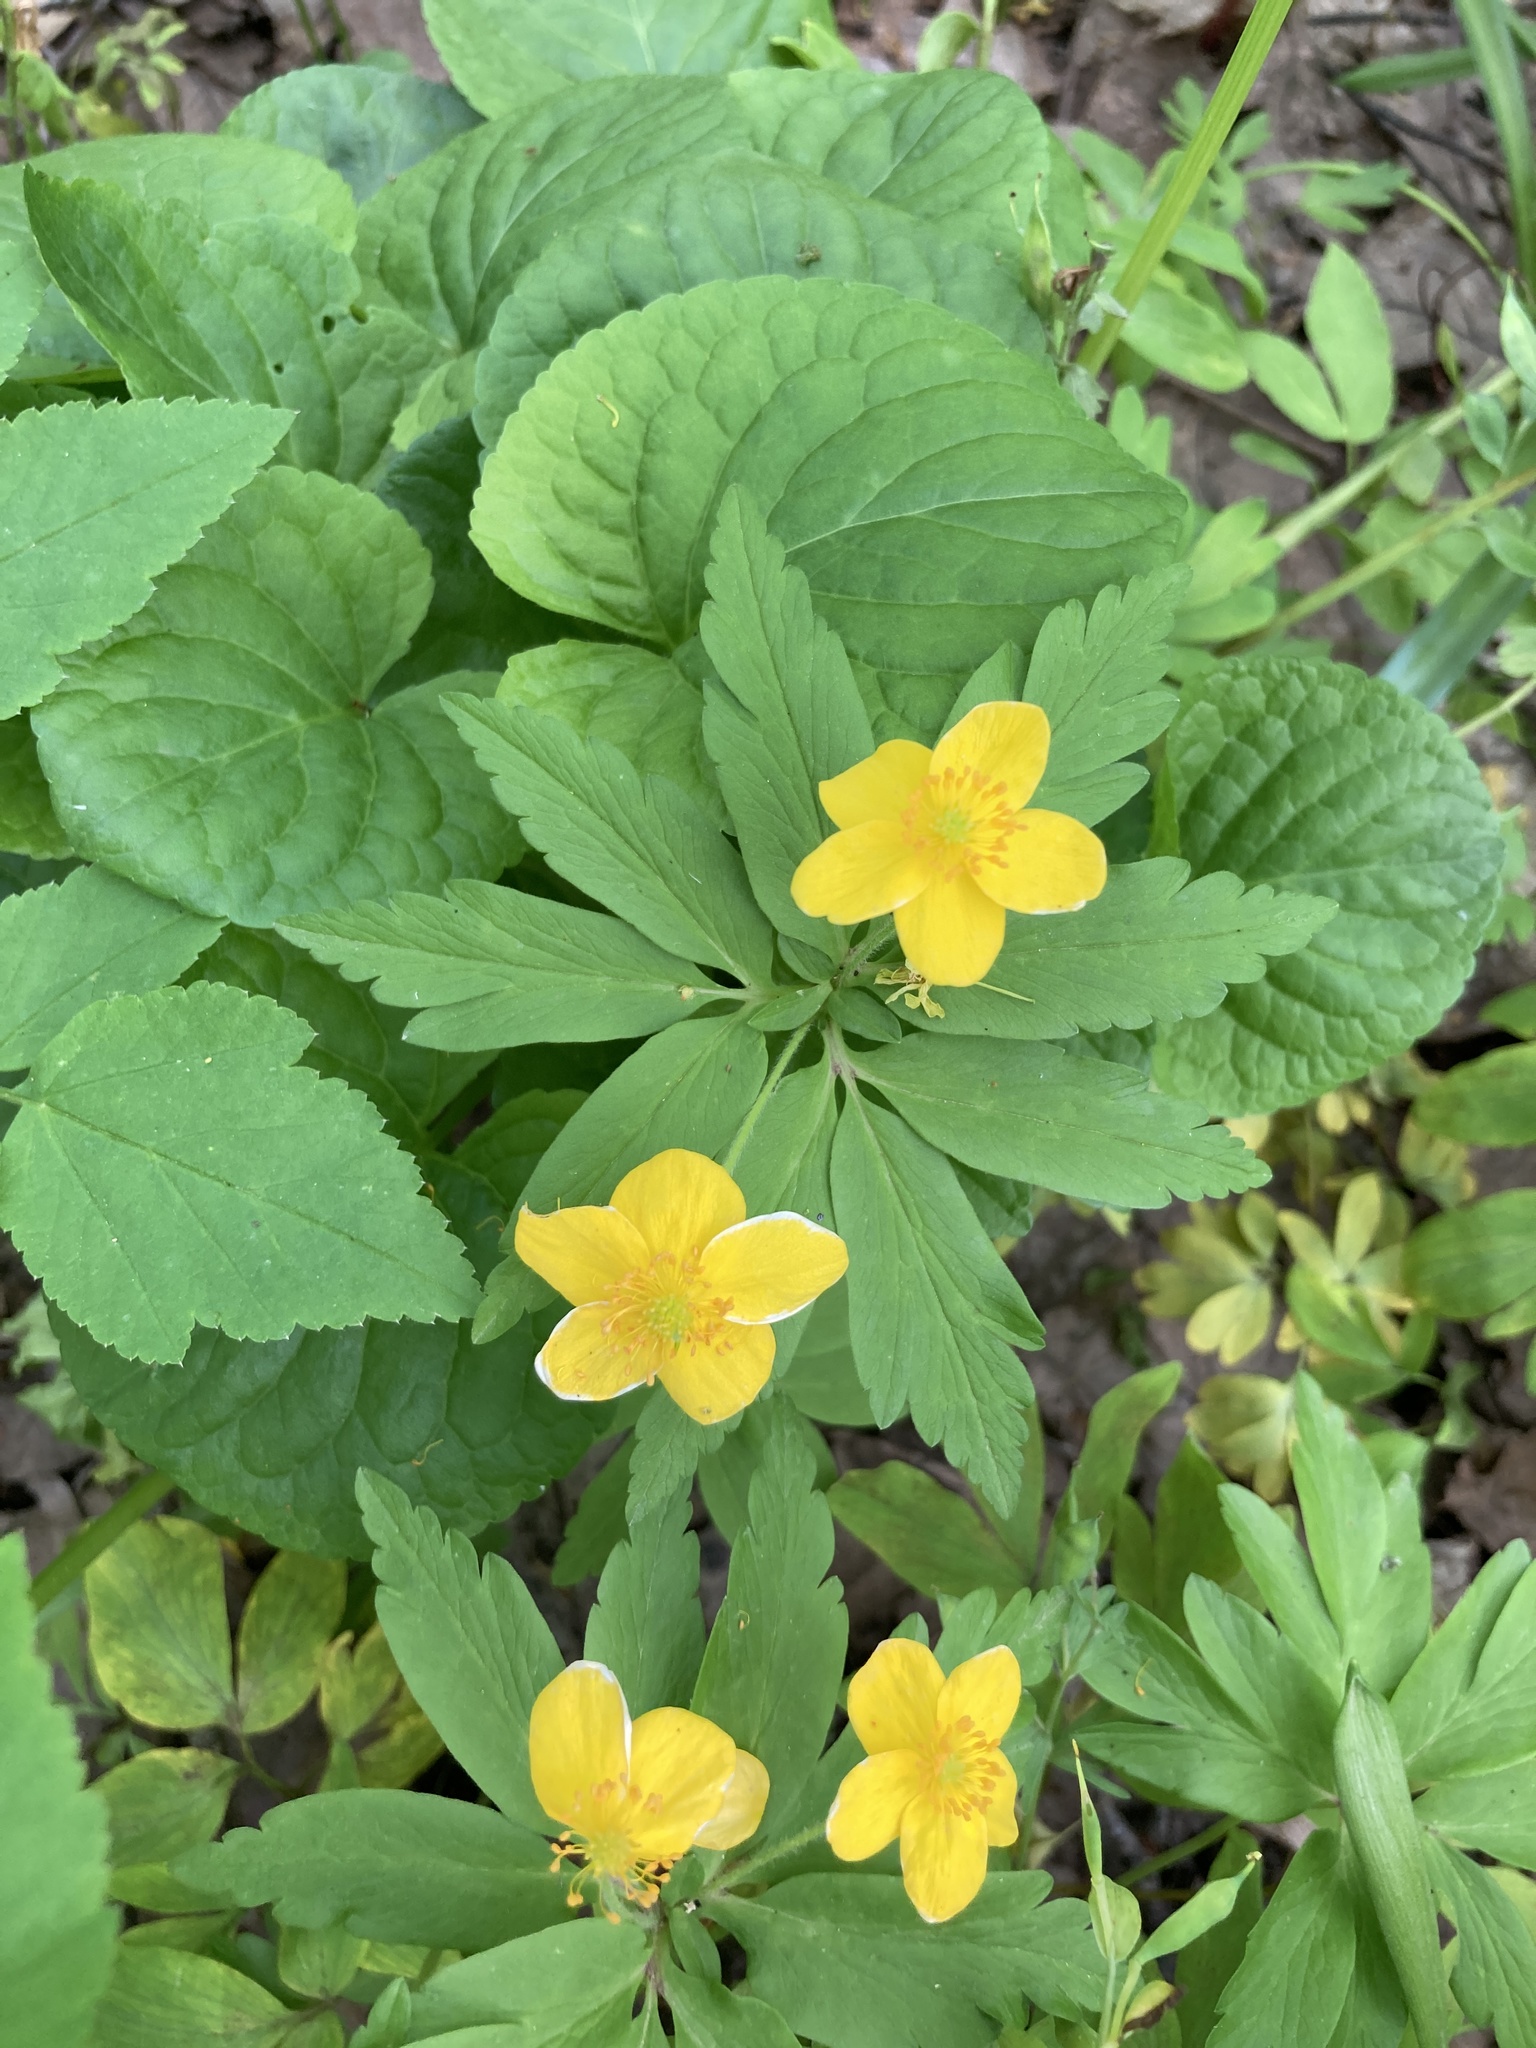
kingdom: Plantae
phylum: Tracheophyta
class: Magnoliopsida
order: Ranunculales
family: Ranunculaceae
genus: Anemone
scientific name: Anemone ranunculoides
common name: Yellow anemone
